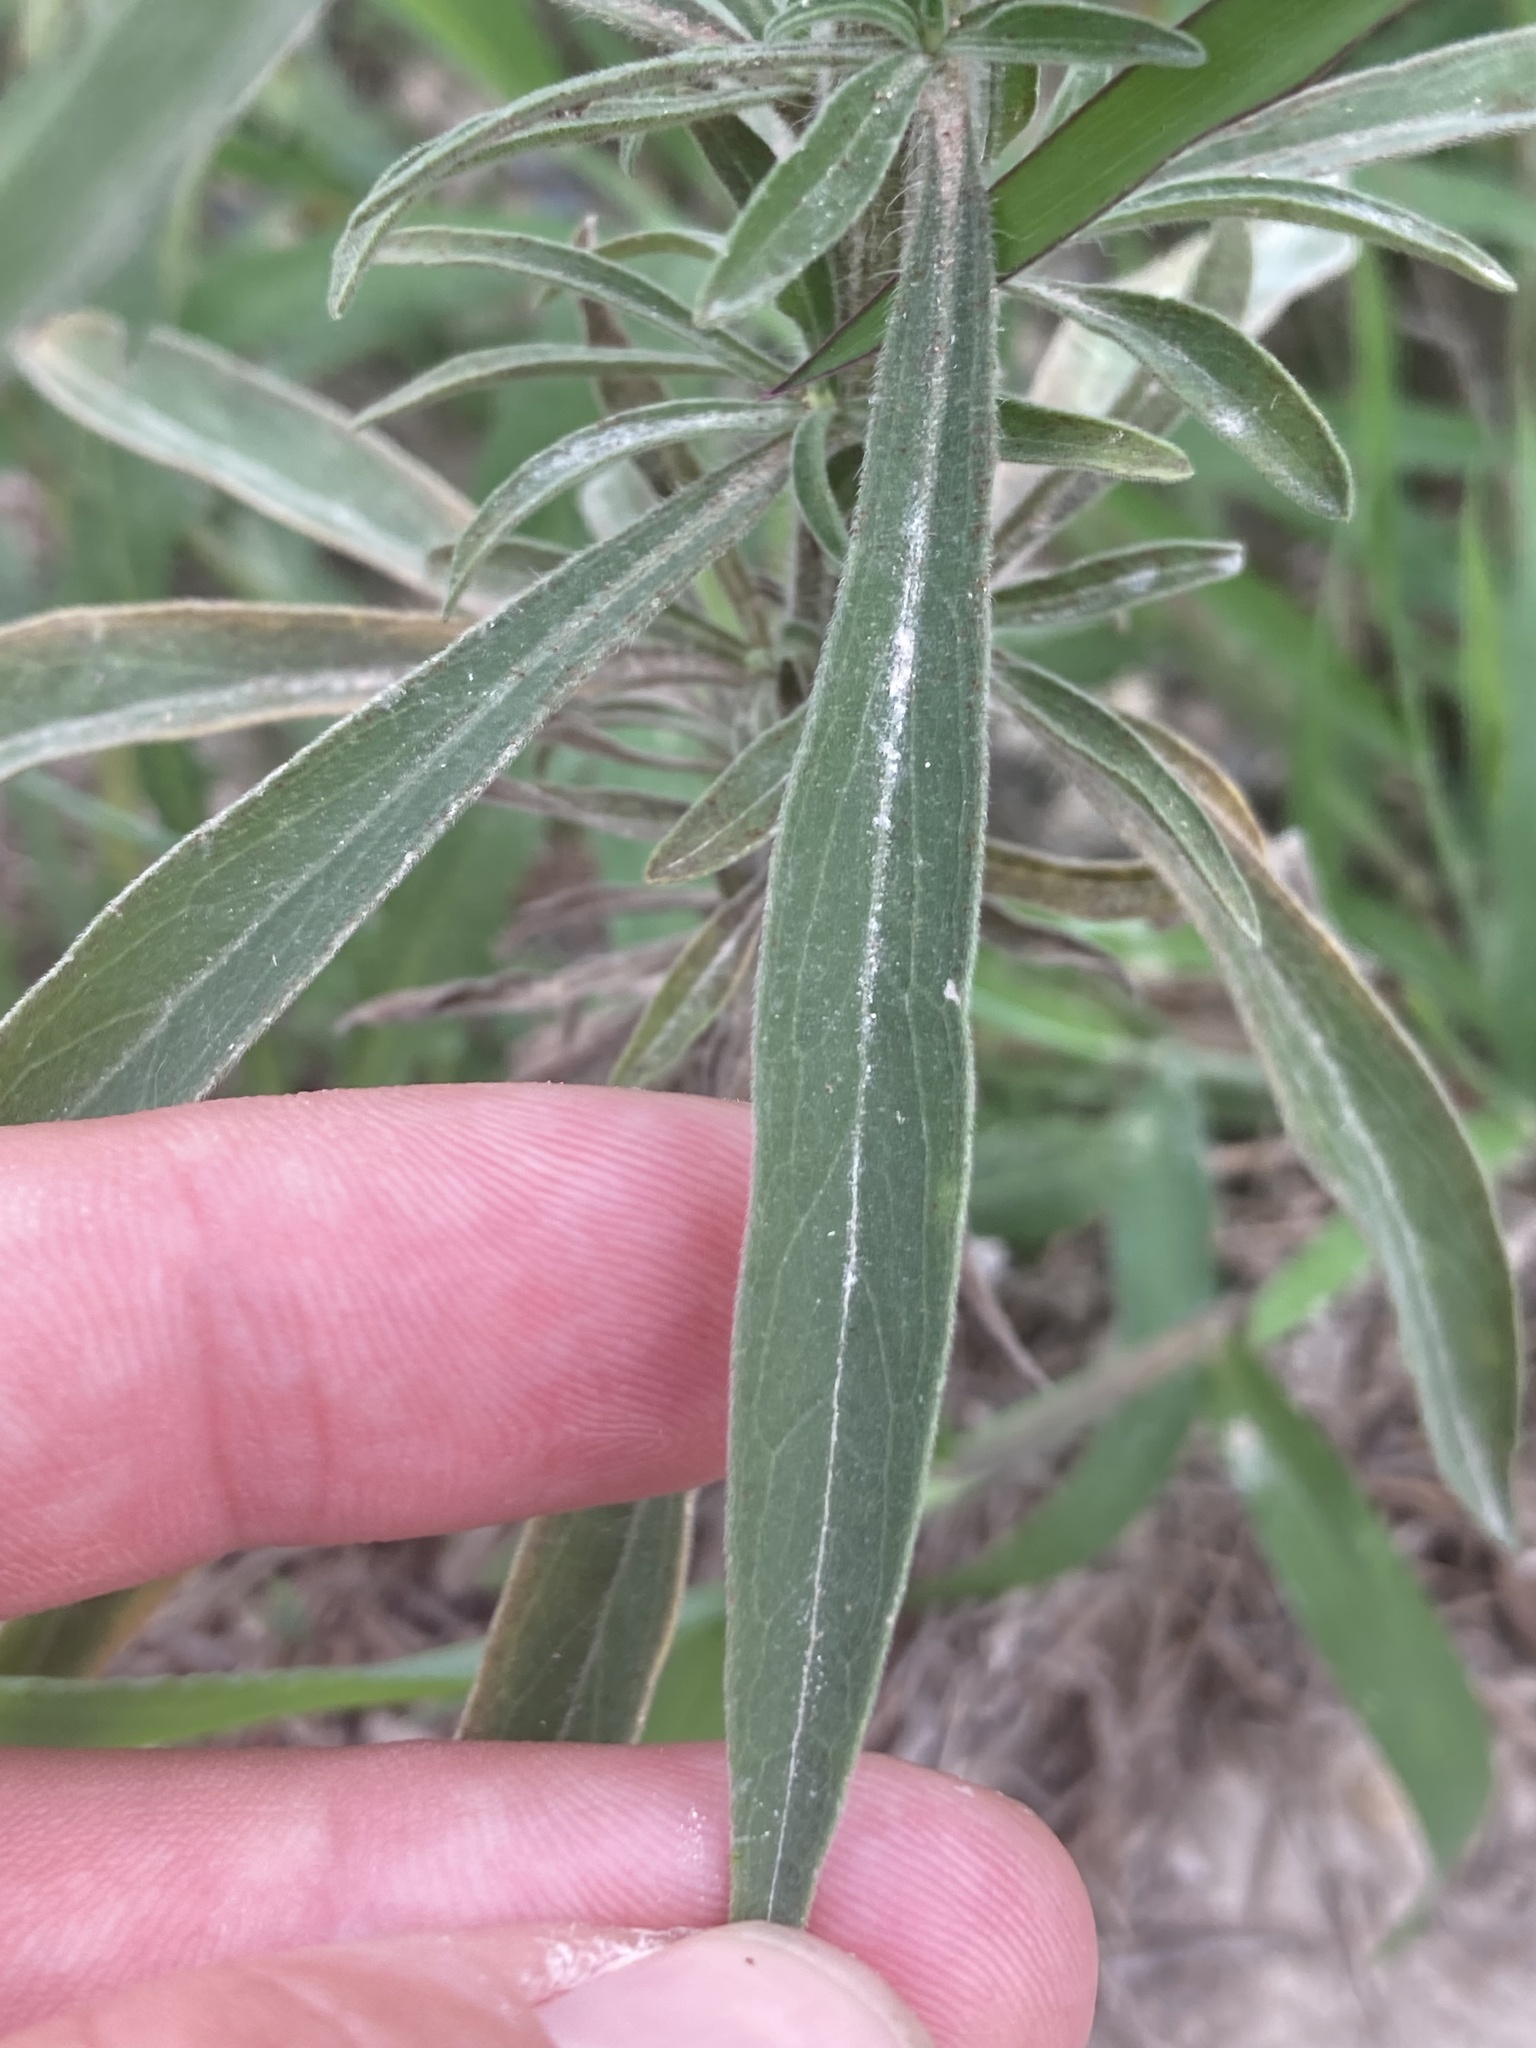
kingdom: Plantae
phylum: Tracheophyta
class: Magnoliopsida
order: Asterales
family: Asteraceae
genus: Erigeron
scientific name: Erigeron sumatrensis
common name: Daisy
